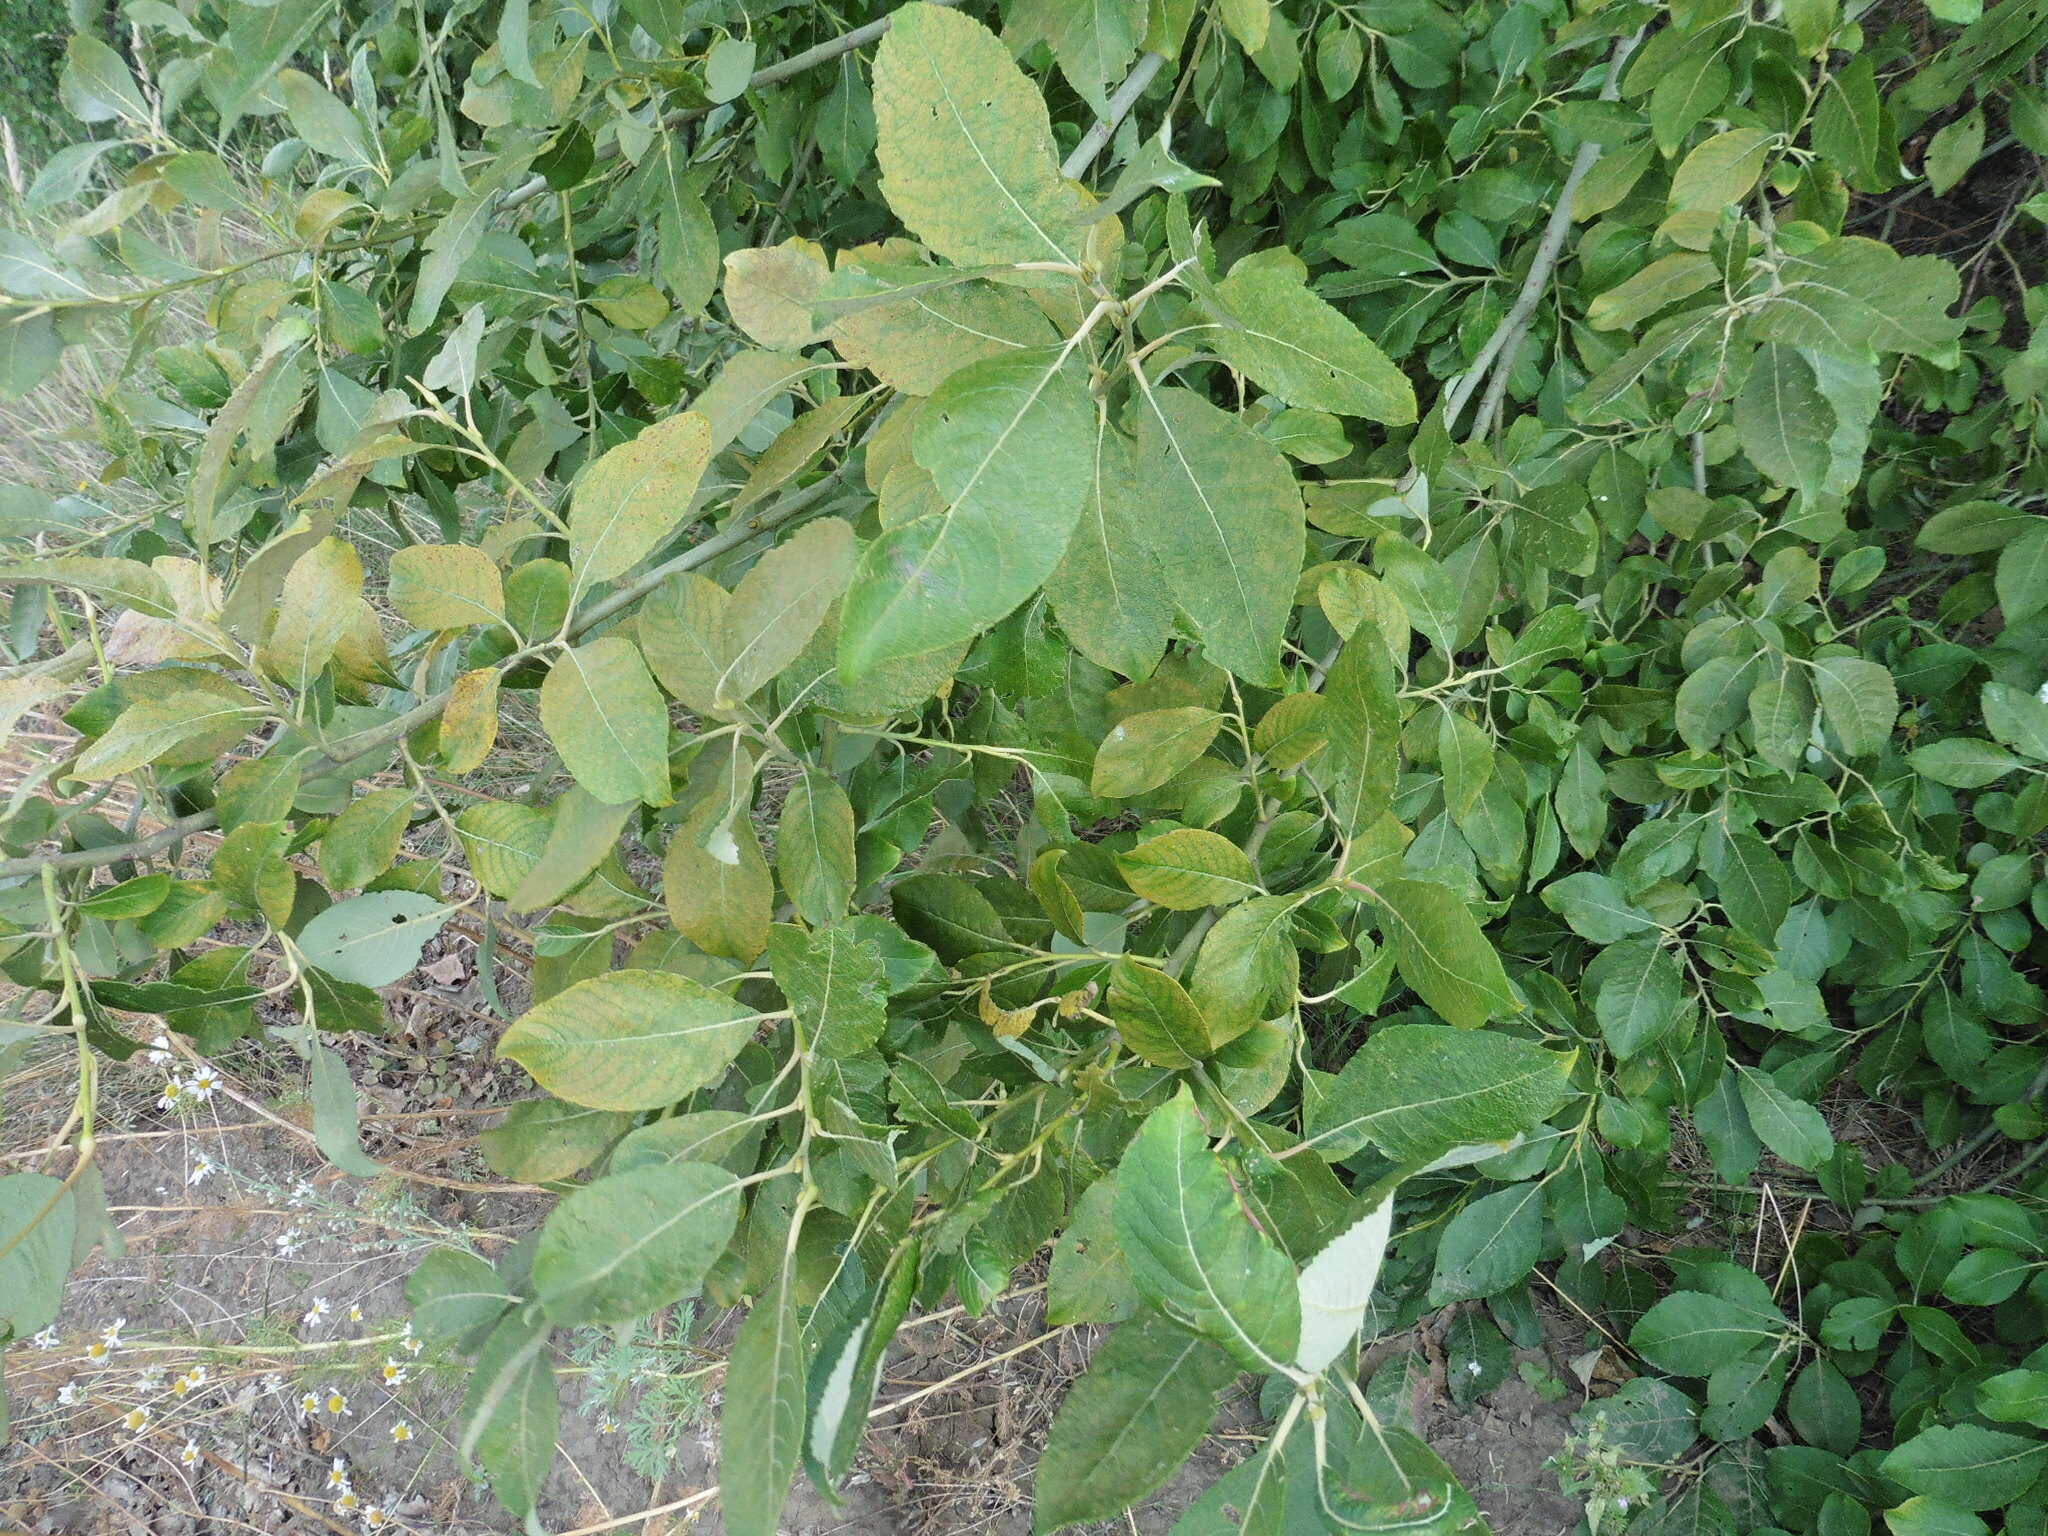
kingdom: Plantae
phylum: Tracheophyta
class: Magnoliopsida
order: Malpighiales
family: Salicaceae
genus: Salix
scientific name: Salix caprea
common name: Goat willow
